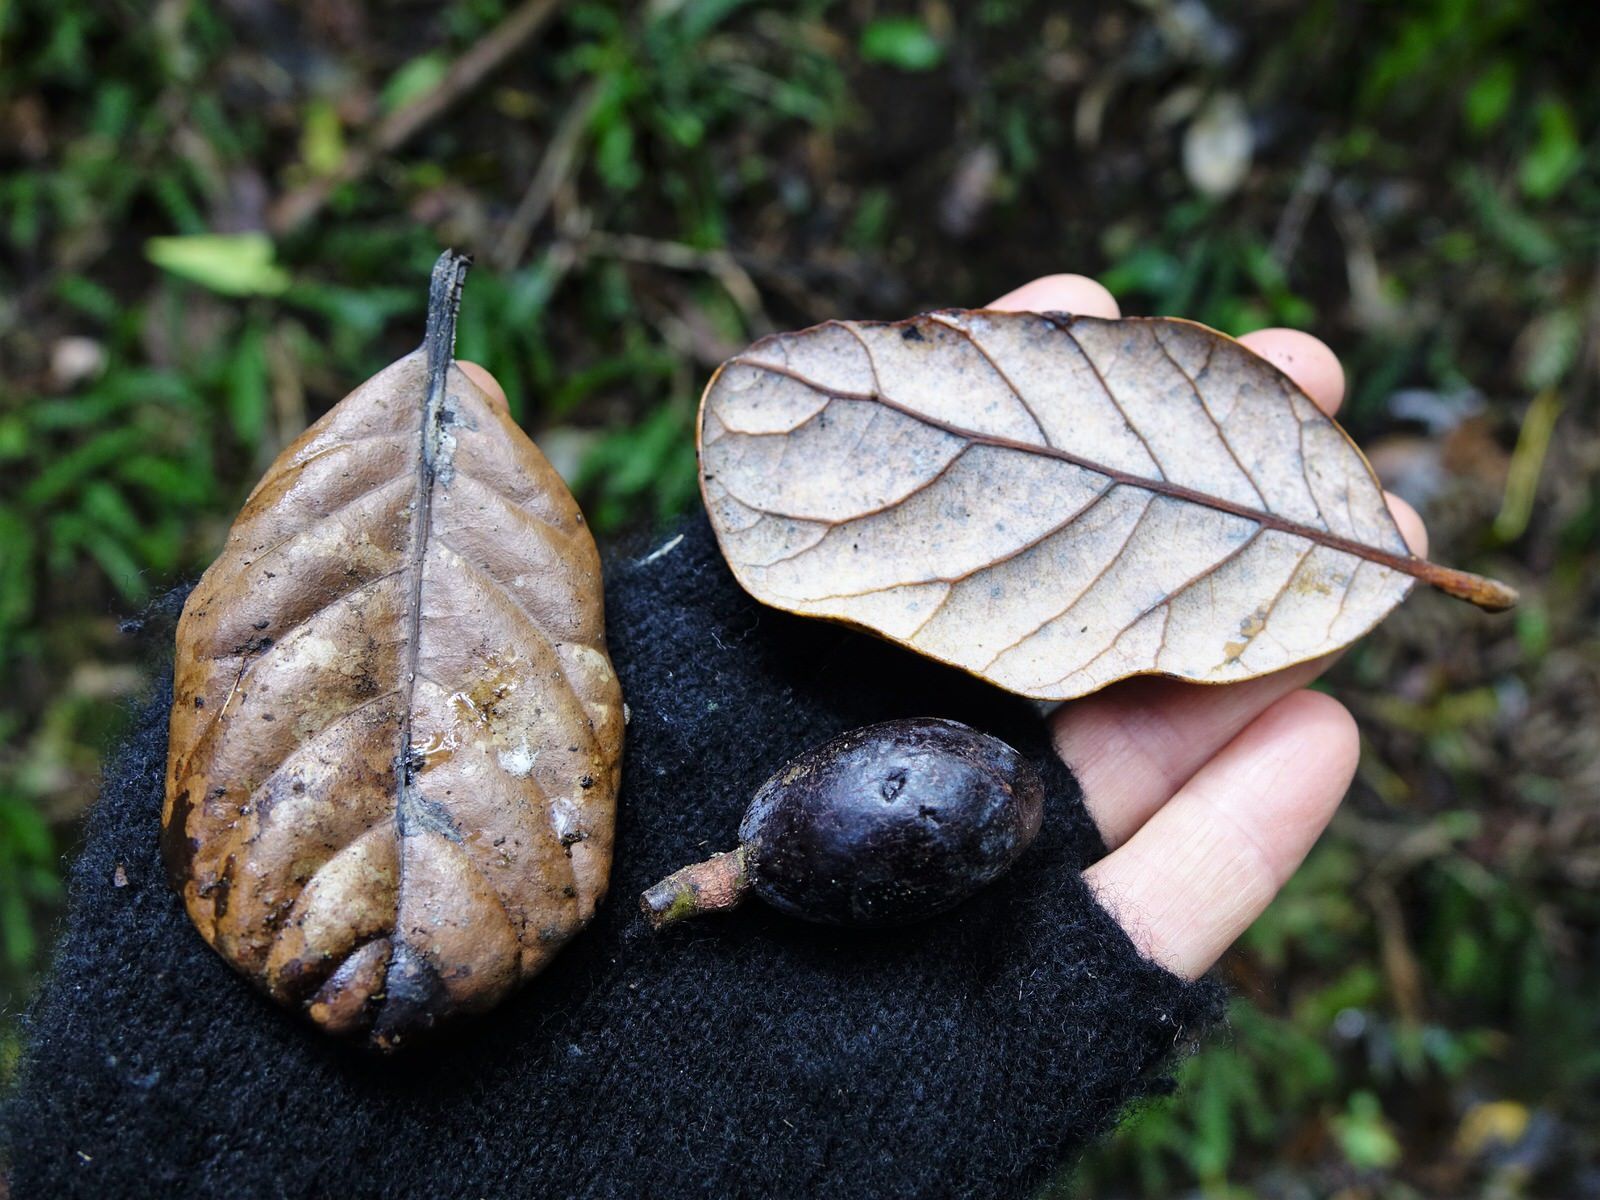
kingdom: Plantae
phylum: Tracheophyta
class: Magnoliopsida
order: Laurales
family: Lauraceae
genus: Beilschmiedia
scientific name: Beilschmiedia tarairi
